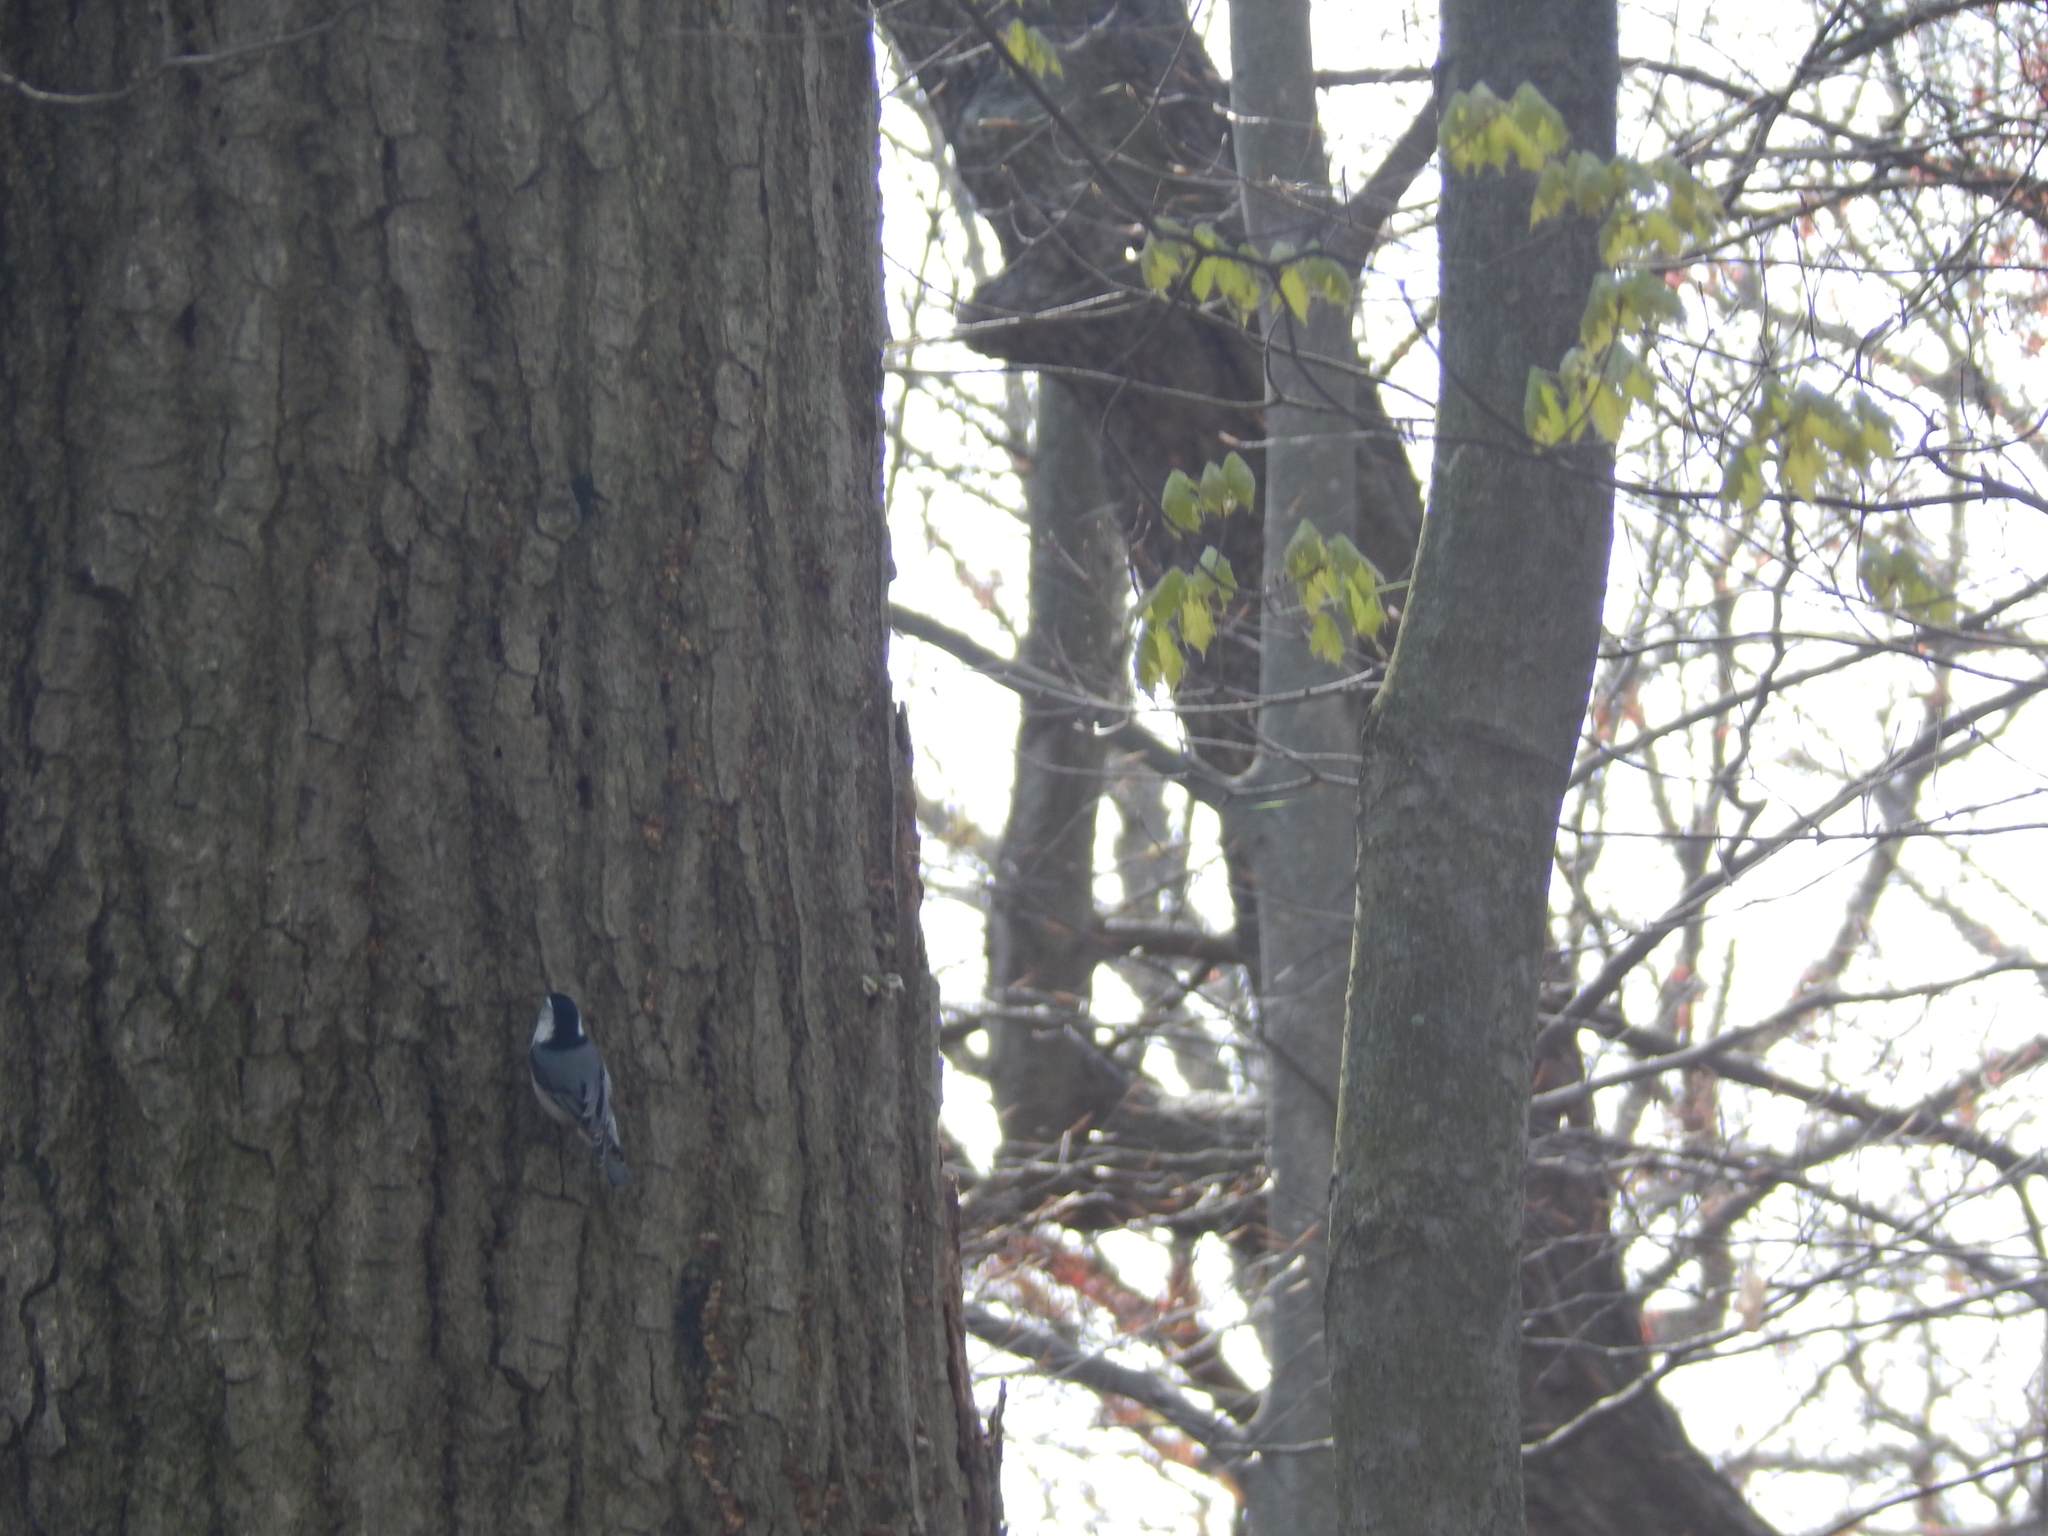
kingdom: Animalia
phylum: Chordata
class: Aves
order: Passeriformes
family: Sittidae
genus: Sitta
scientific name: Sitta carolinensis
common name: White-breasted nuthatch
